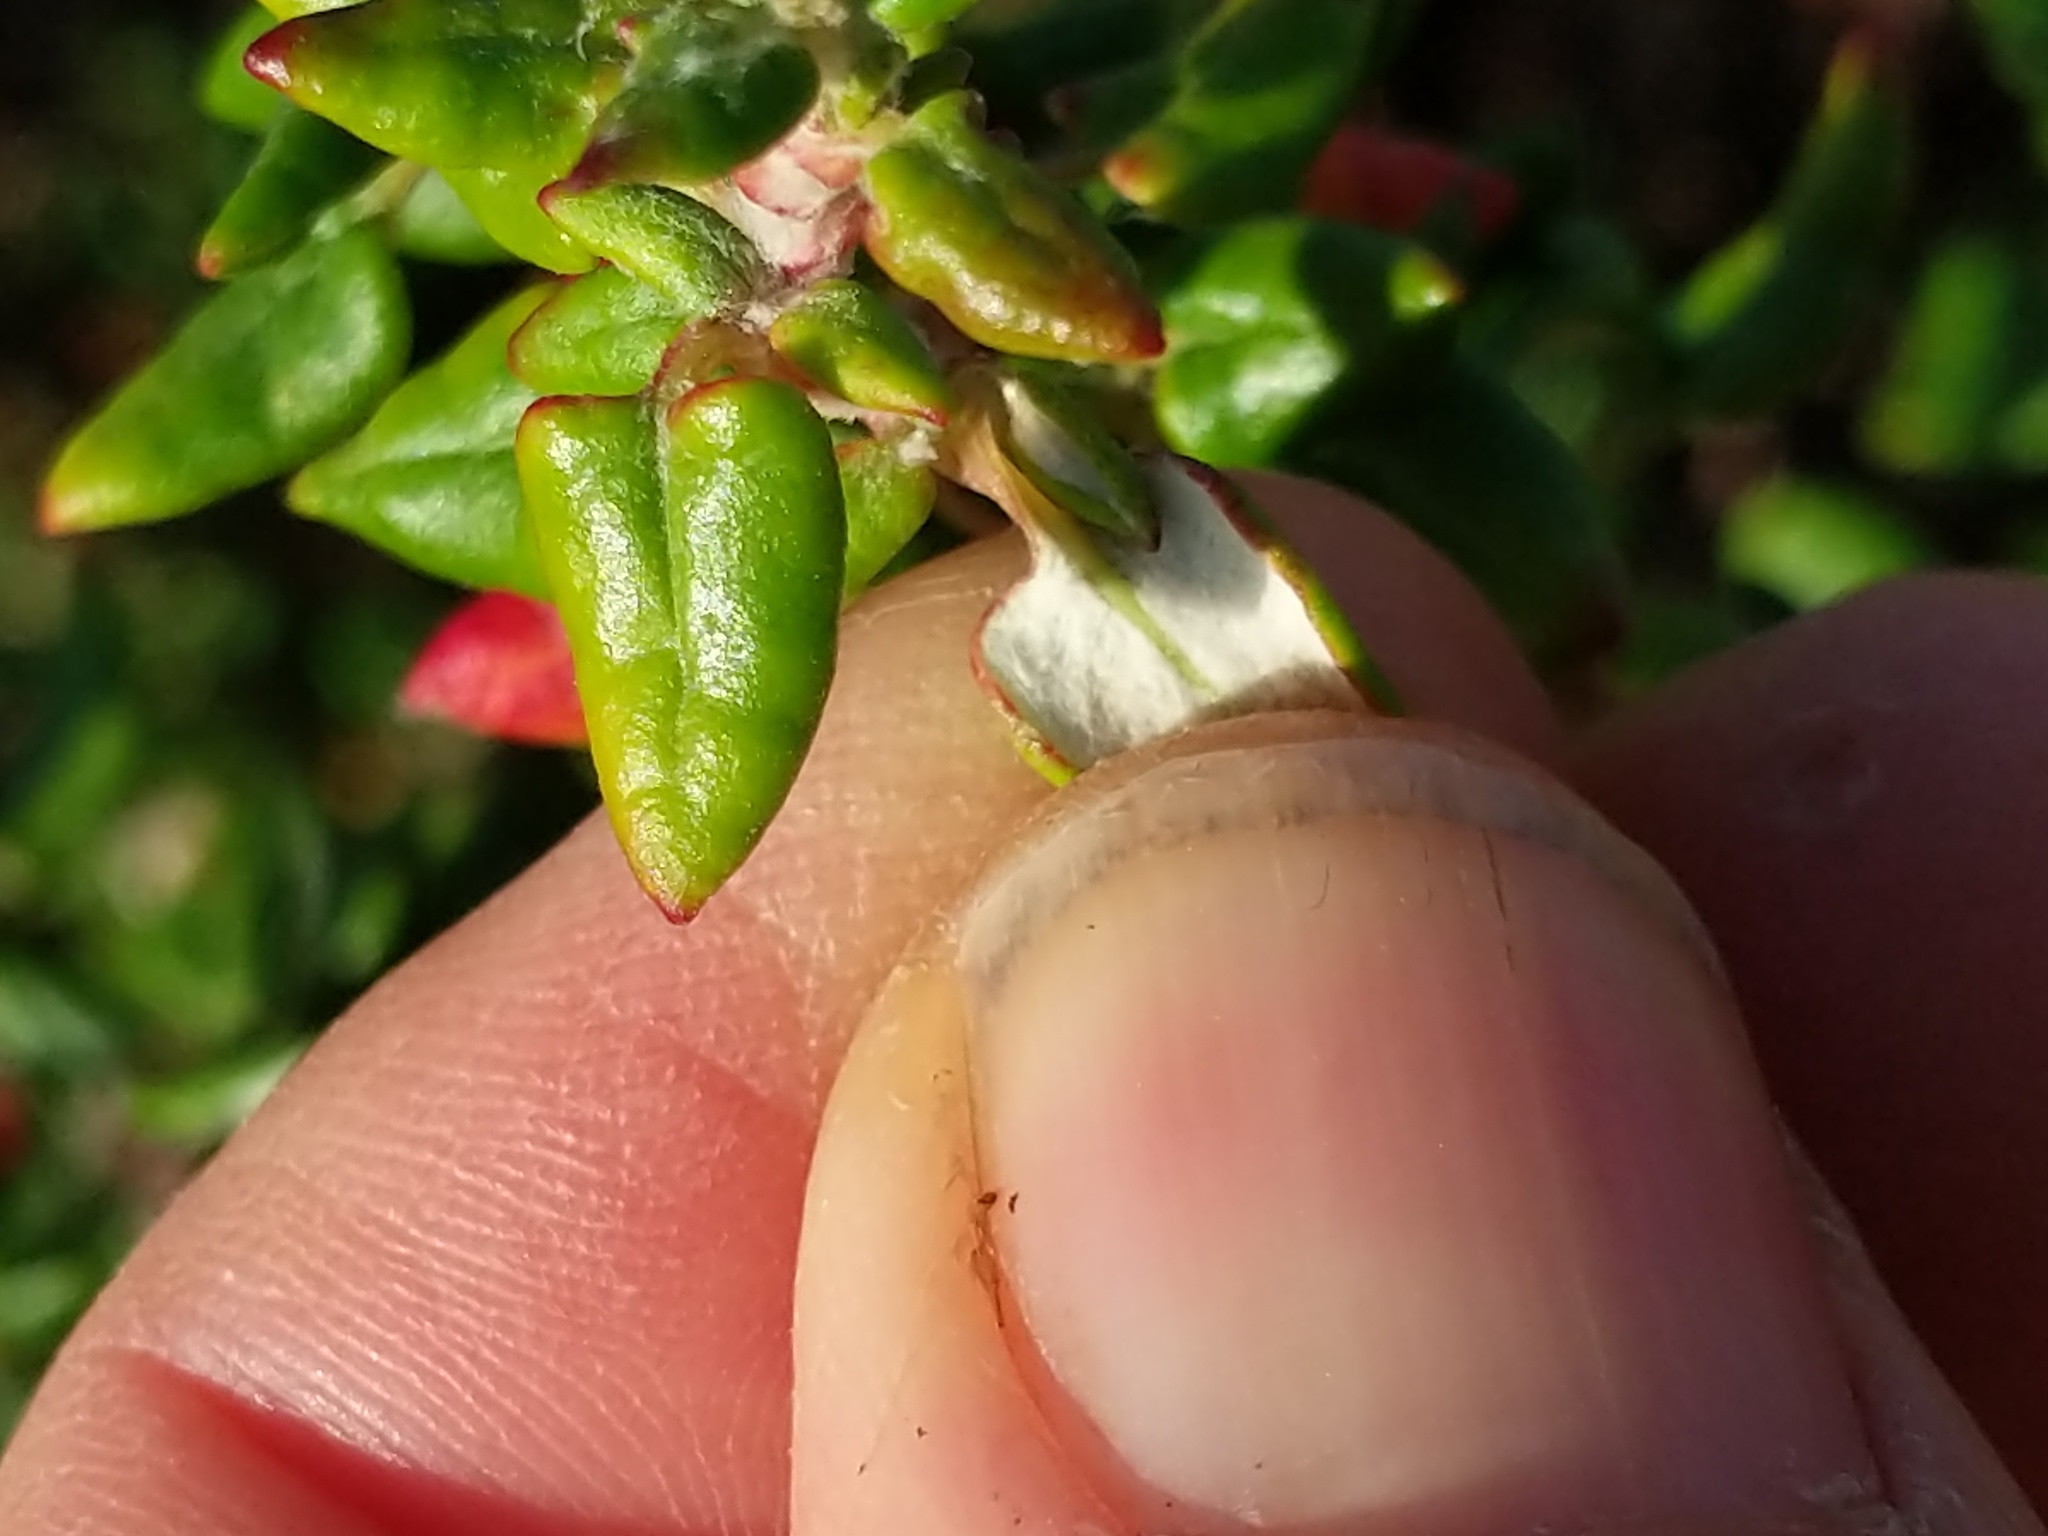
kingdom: Plantae
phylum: Tracheophyta
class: Magnoliopsida
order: Caryophyllales
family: Polygonaceae
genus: Eriogonum
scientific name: Eriogonum parvifolium
